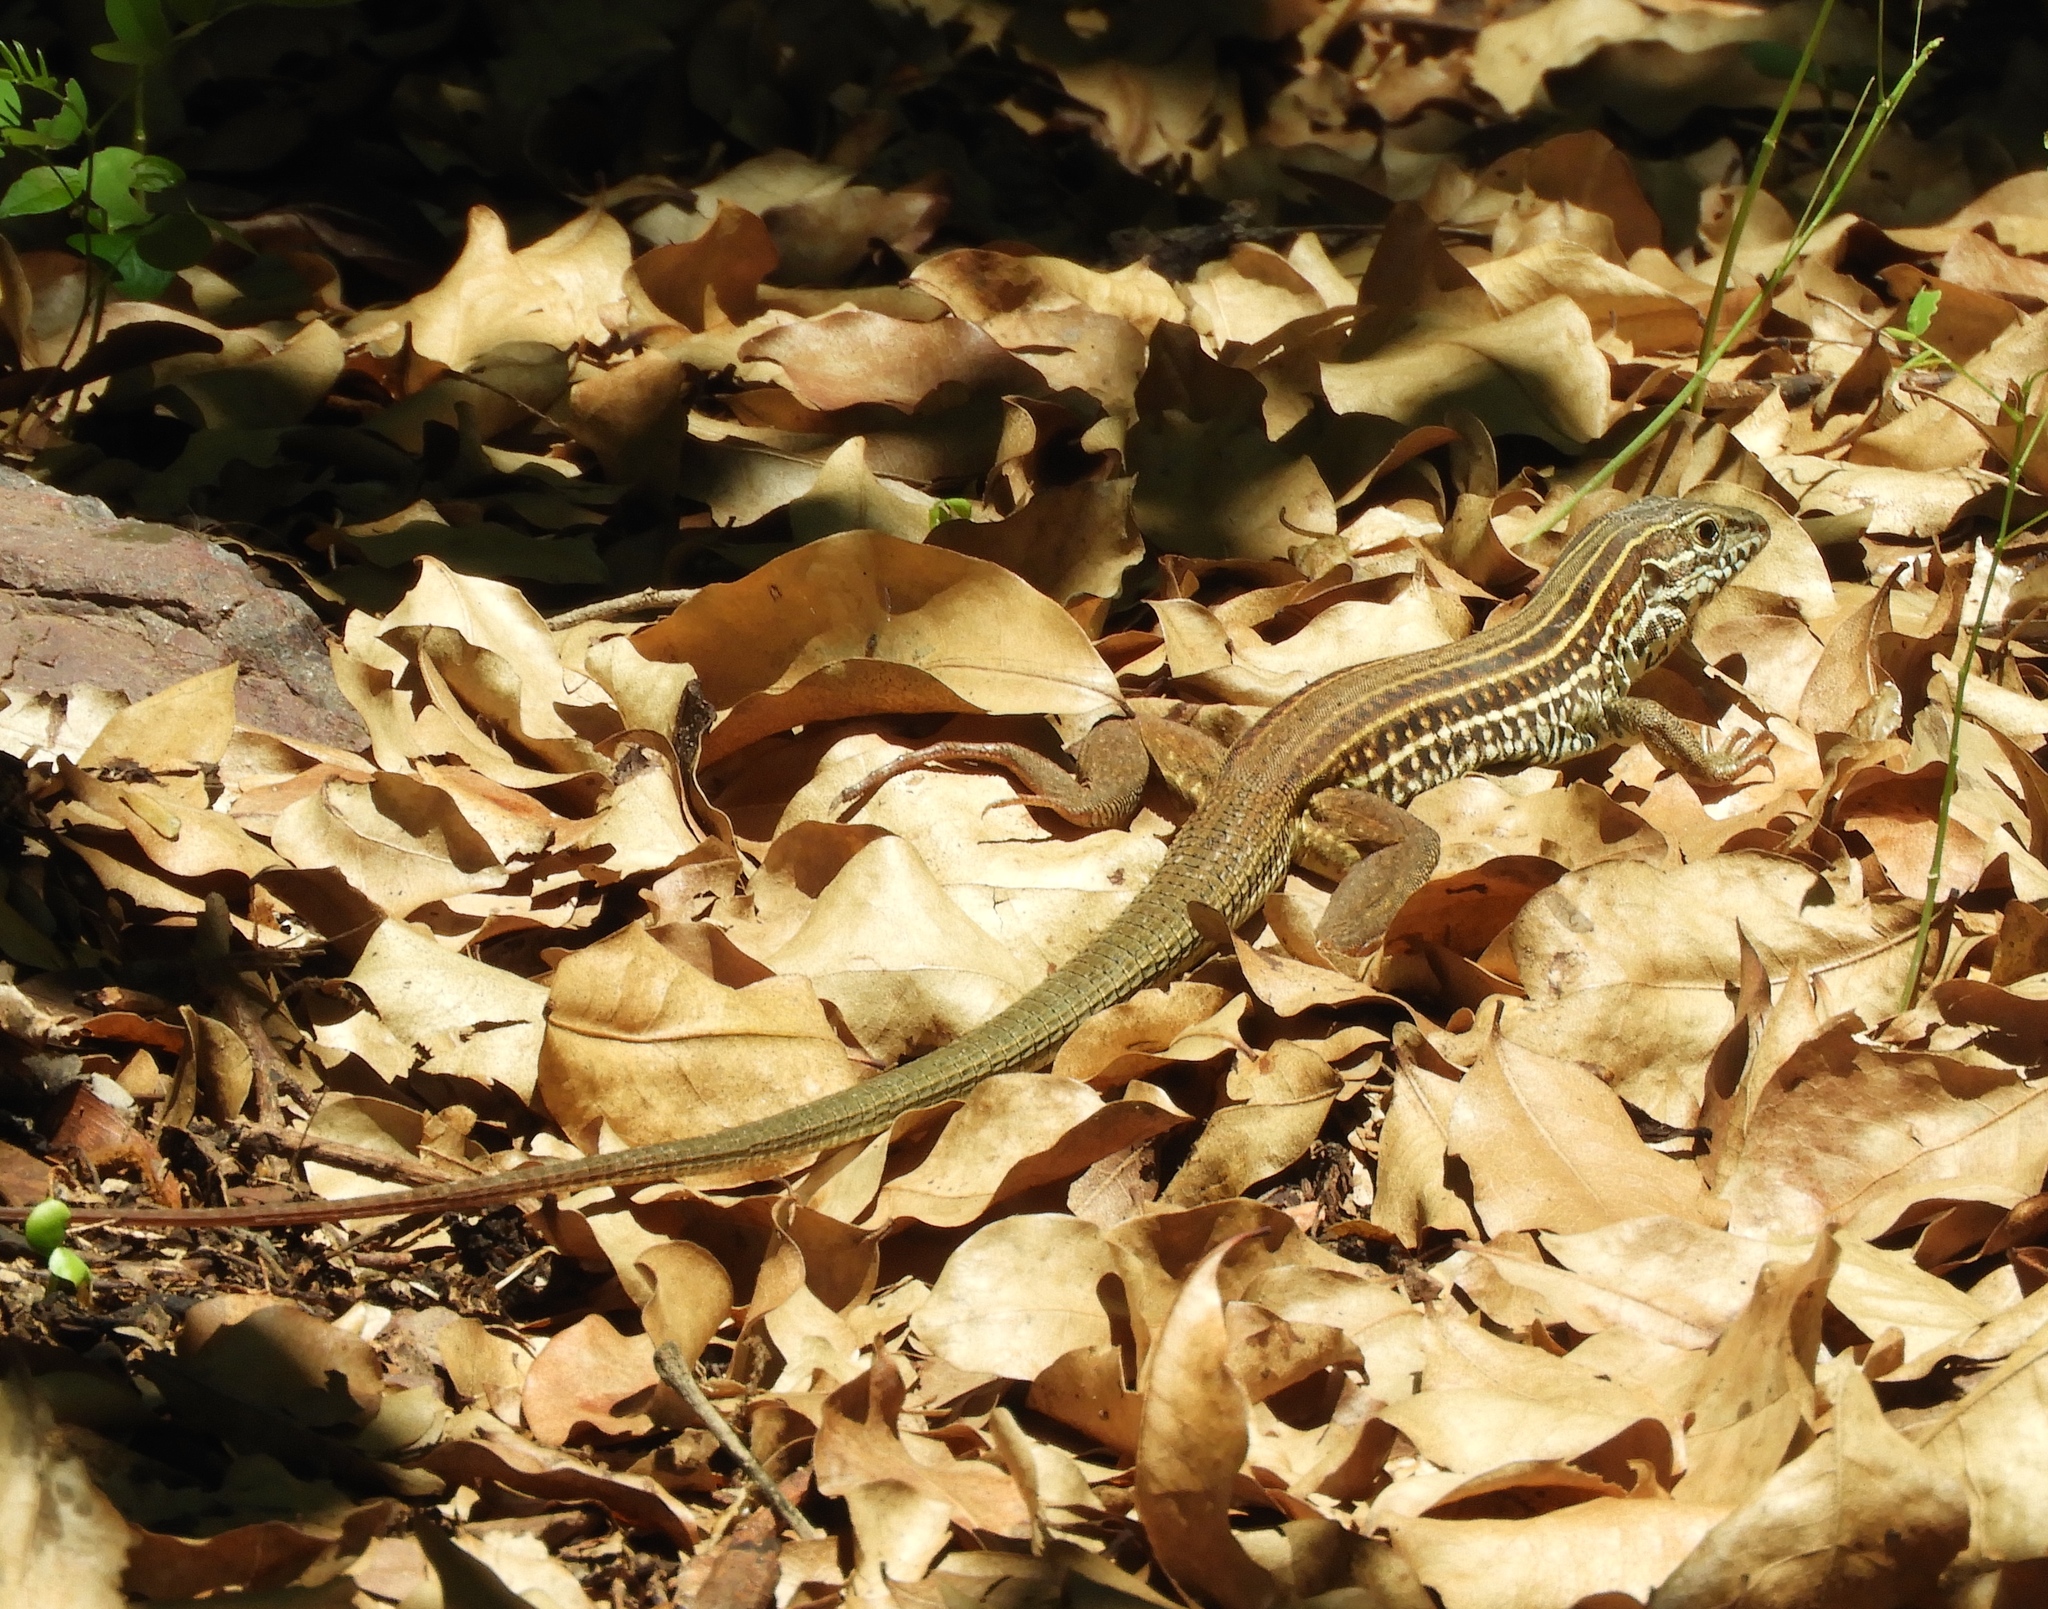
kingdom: Animalia
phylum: Chordata
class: Squamata
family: Teiidae
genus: Aspidoscelis
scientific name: Aspidoscelis costatus
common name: Western mexico whiptail
